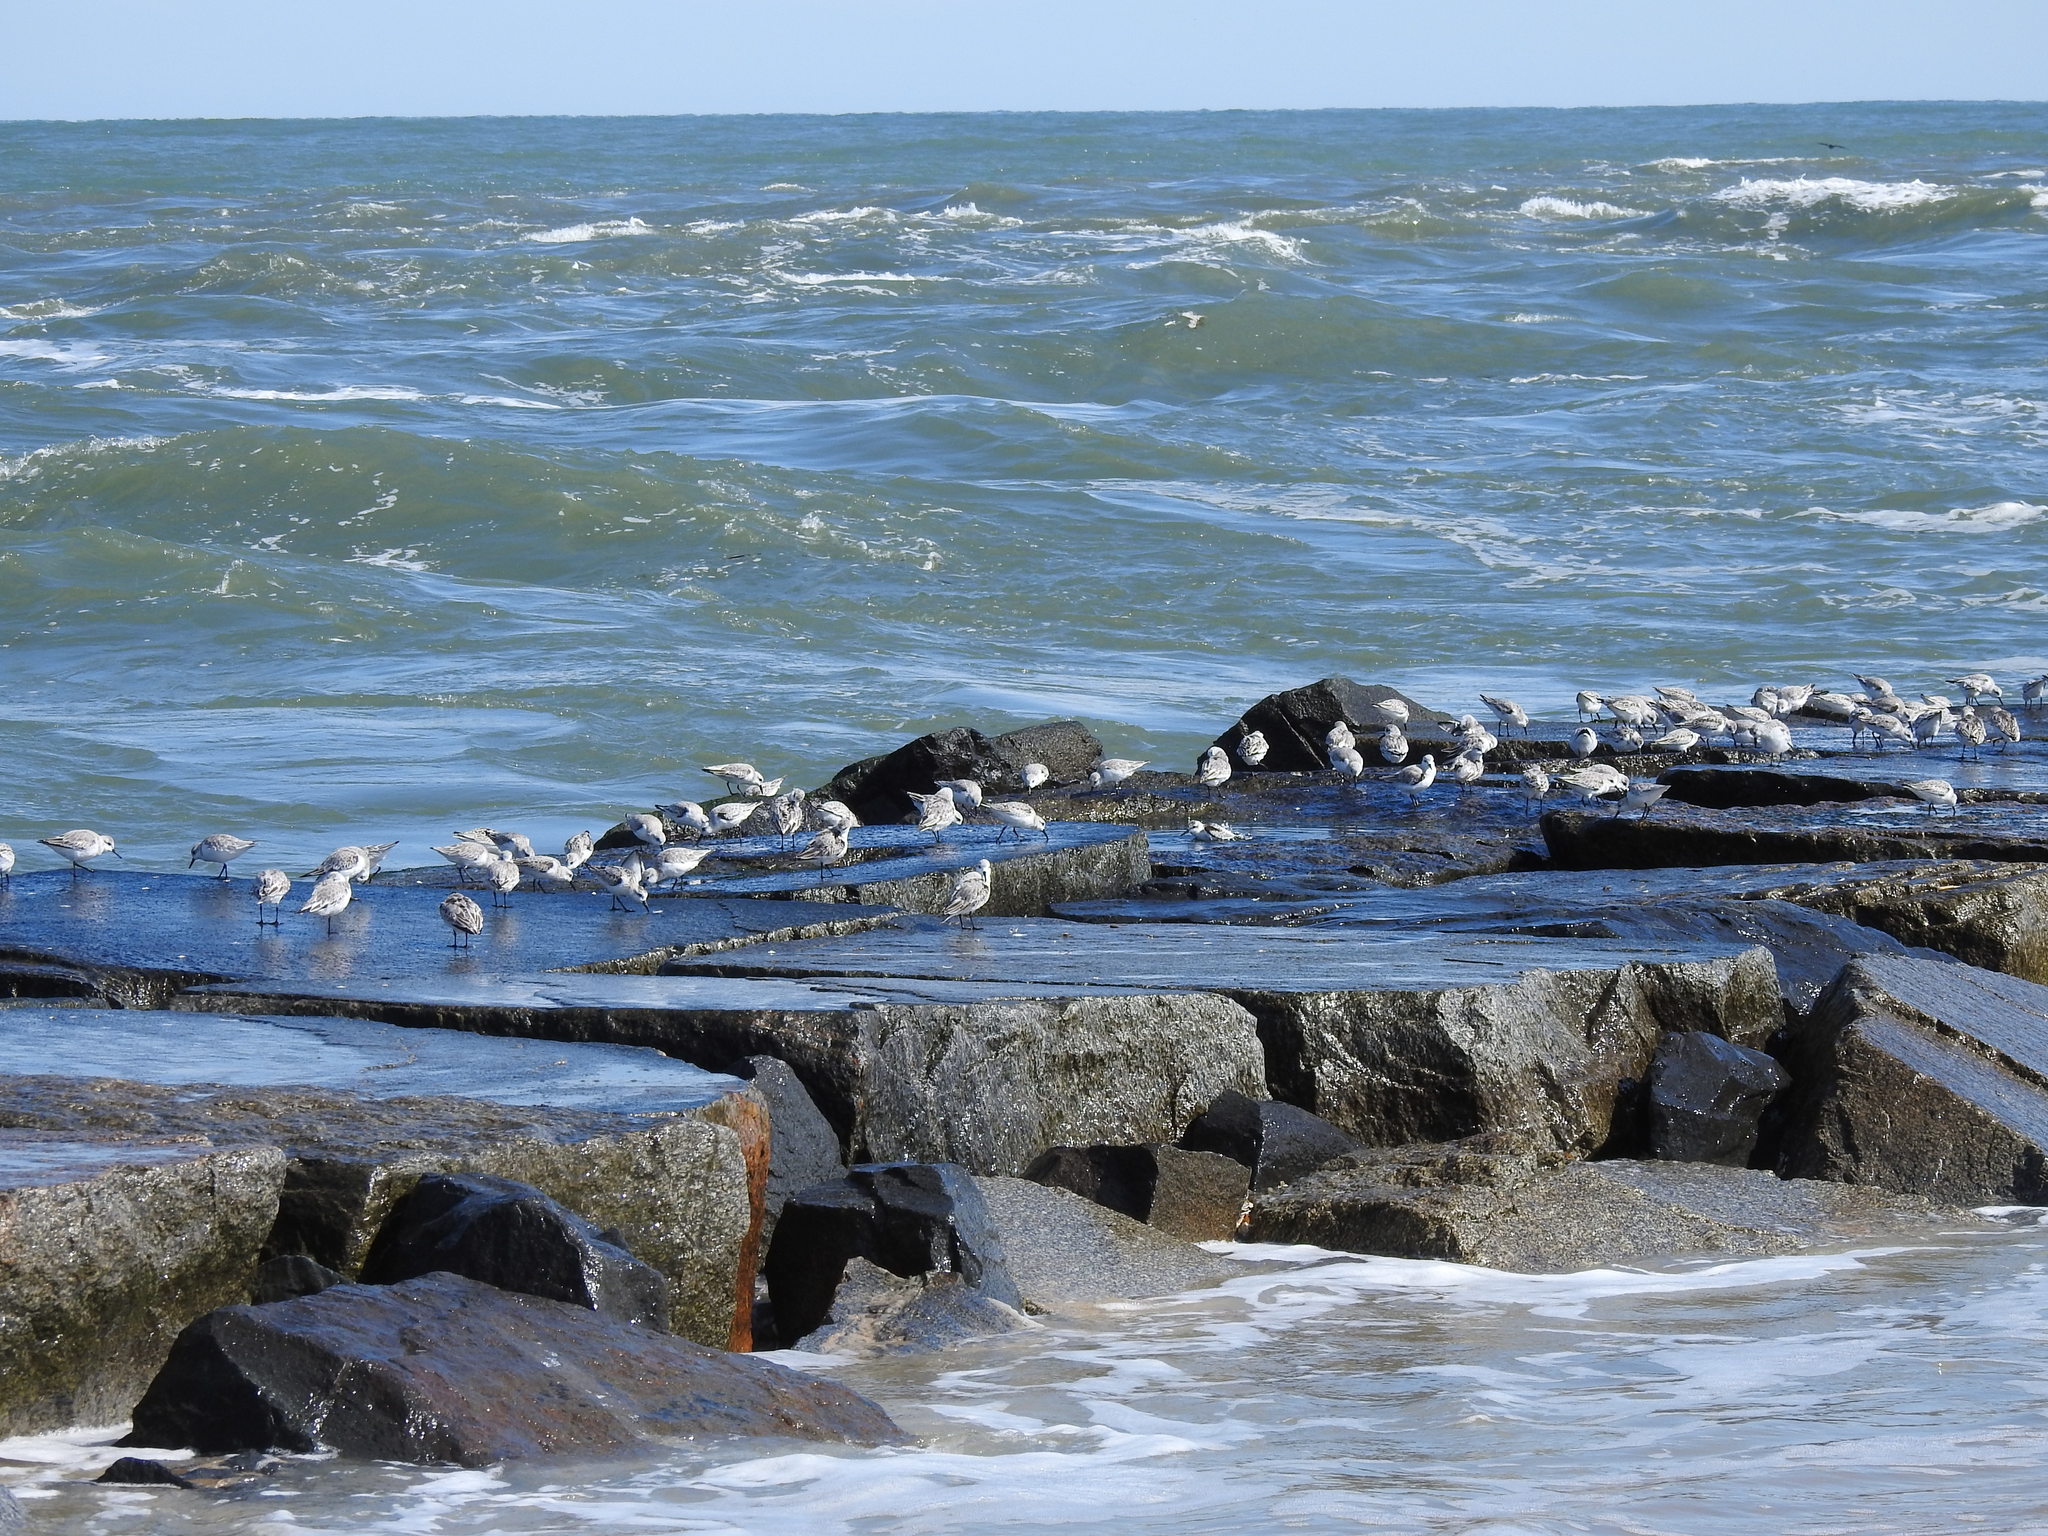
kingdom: Animalia
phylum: Chordata
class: Aves
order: Charadriiformes
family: Scolopacidae
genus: Calidris
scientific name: Calidris alba
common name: Sanderling
